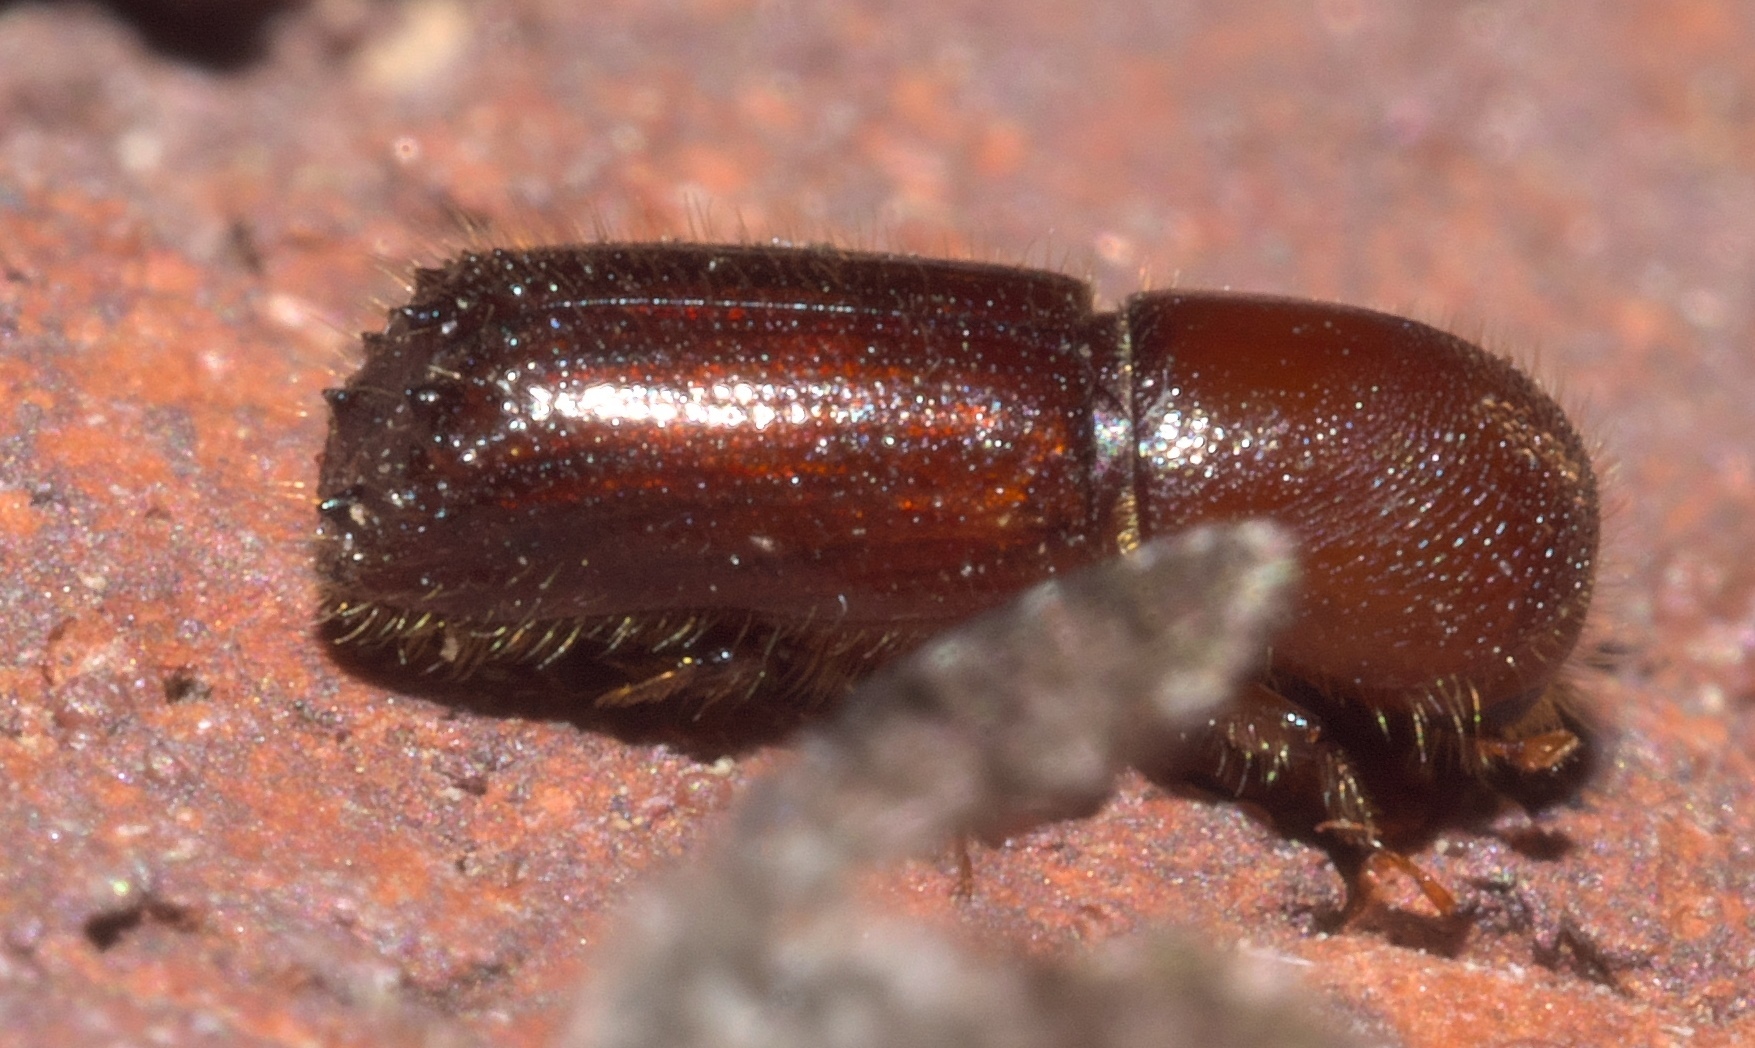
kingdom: Animalia
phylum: Arthropoda
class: Insecta
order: Coleoptera
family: Curculionidae
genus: Xyleborus
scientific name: Xyleborus celsus
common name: Weevil
